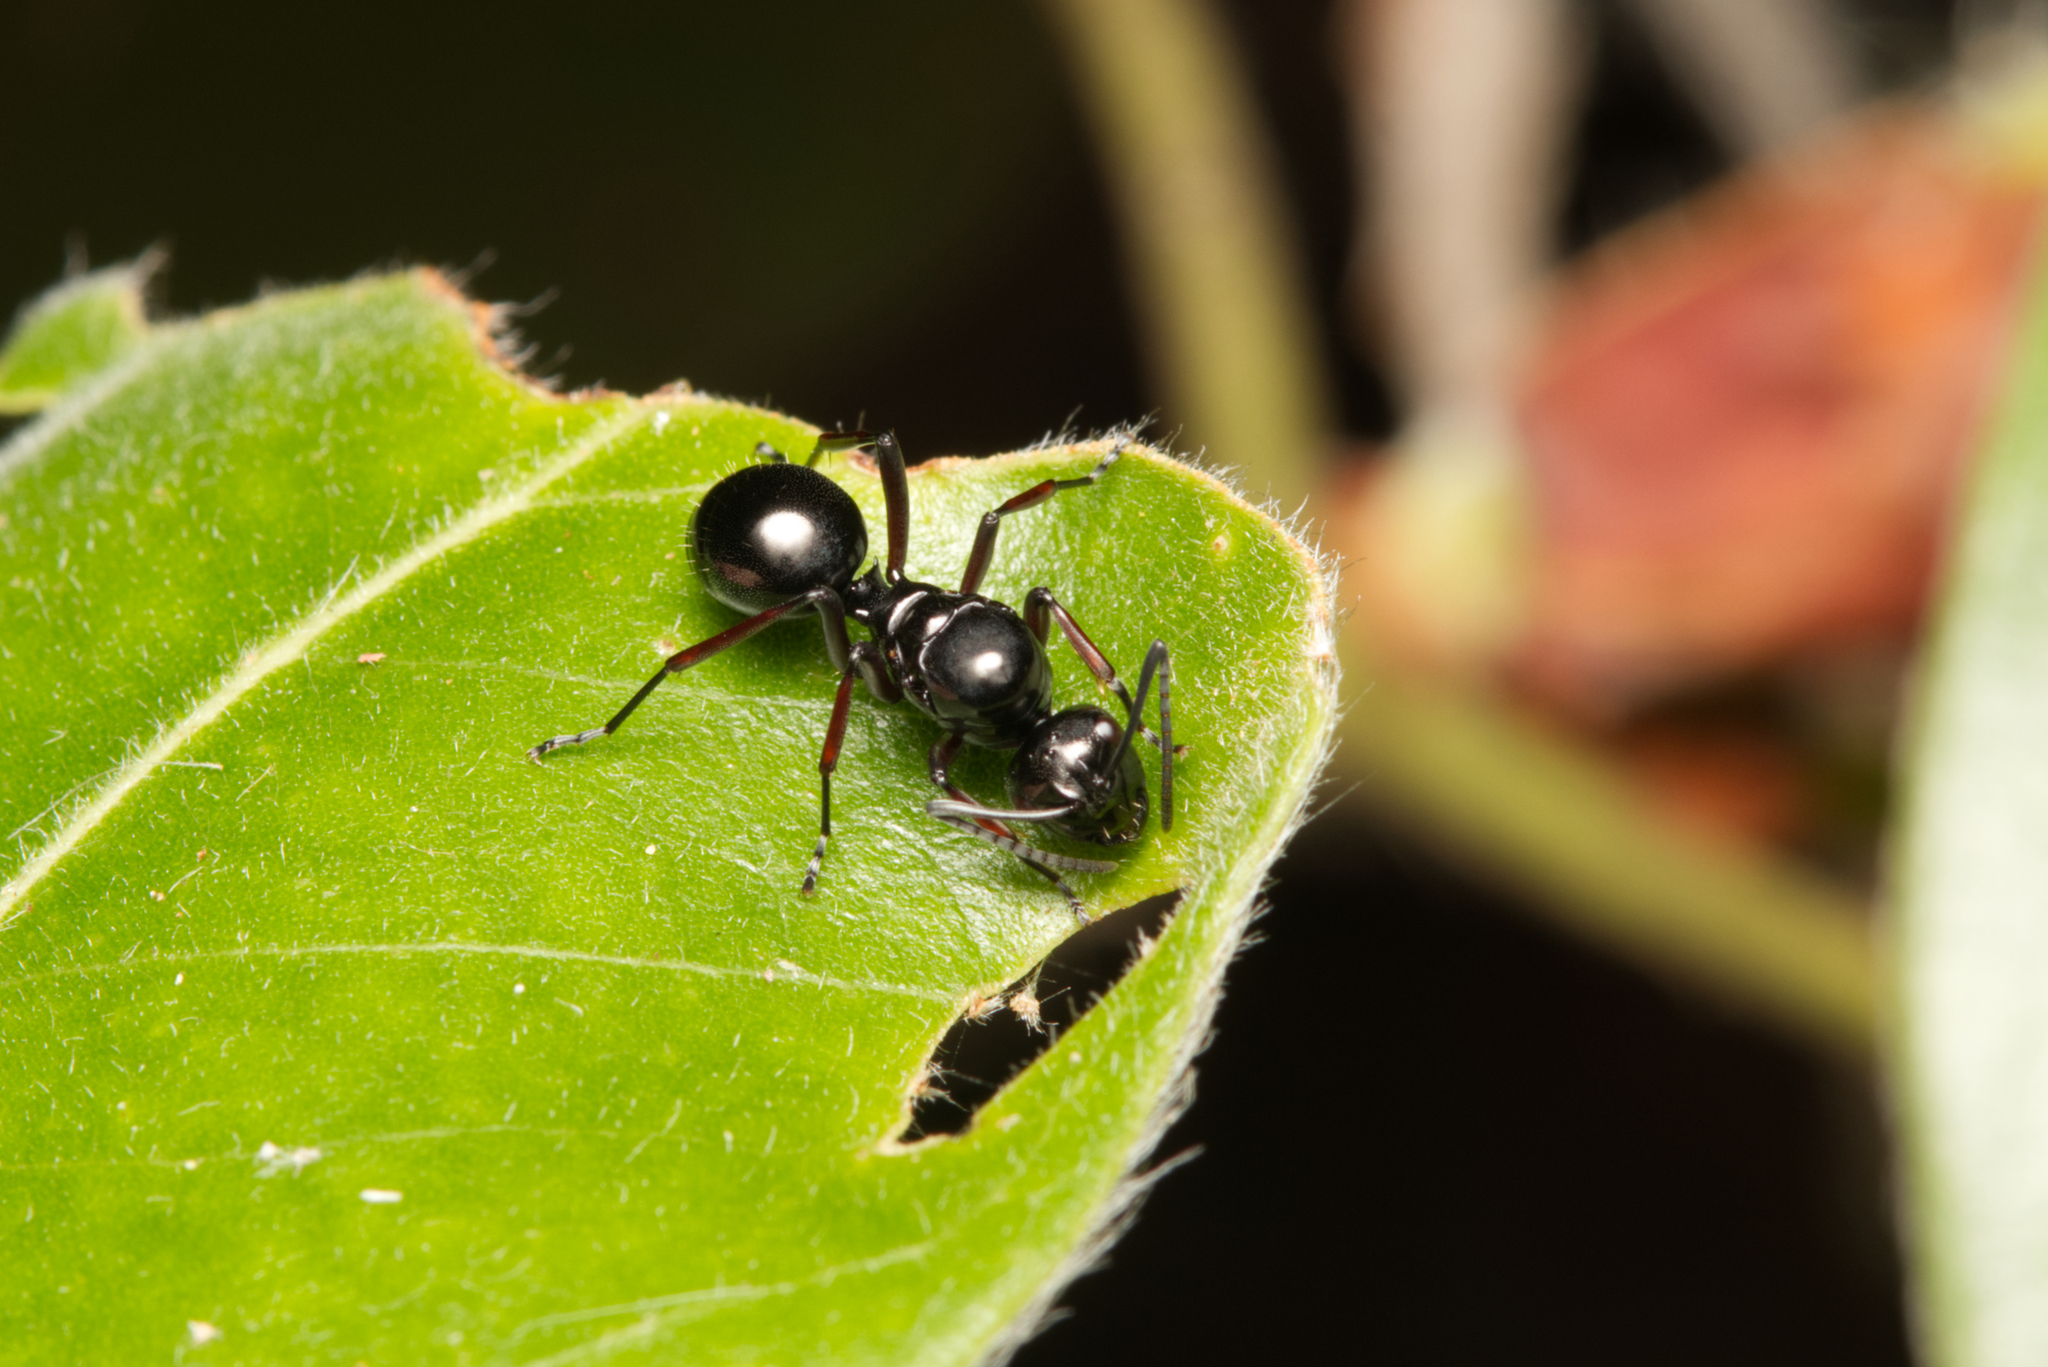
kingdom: Animalia
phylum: Arthropoda
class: Insecta
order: Hymenoptera
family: Formicidae
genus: Polyrhachis
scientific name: Polyrhachis australis
